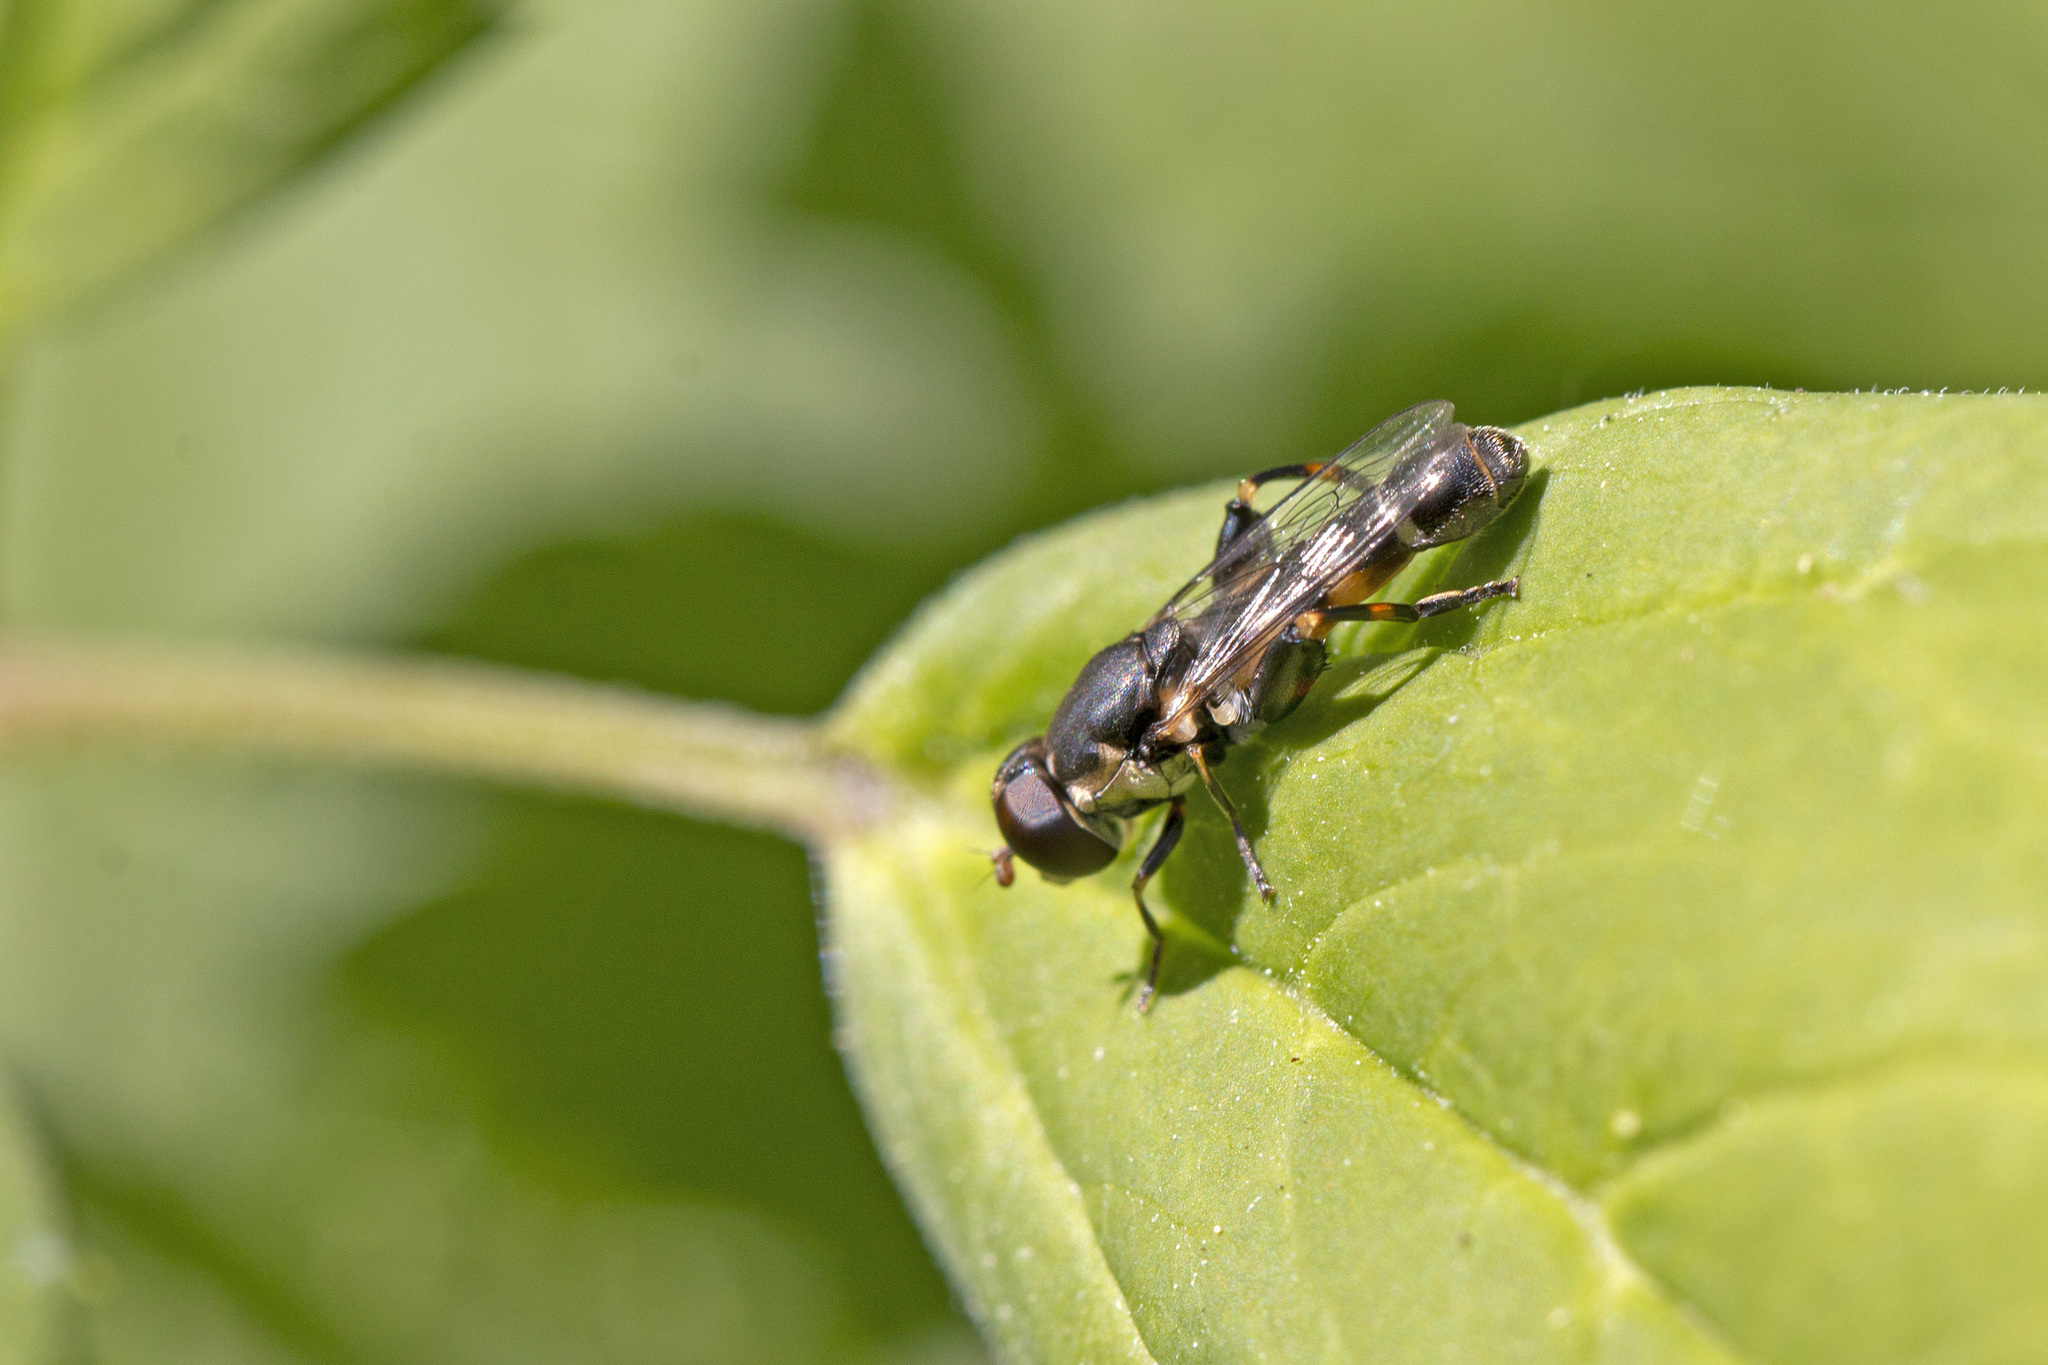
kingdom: Animalia
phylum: Arthropoda
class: Insecta
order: Diptera
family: Syrphidae
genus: Syritta
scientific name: Syritta pipiens
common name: Hover fly
